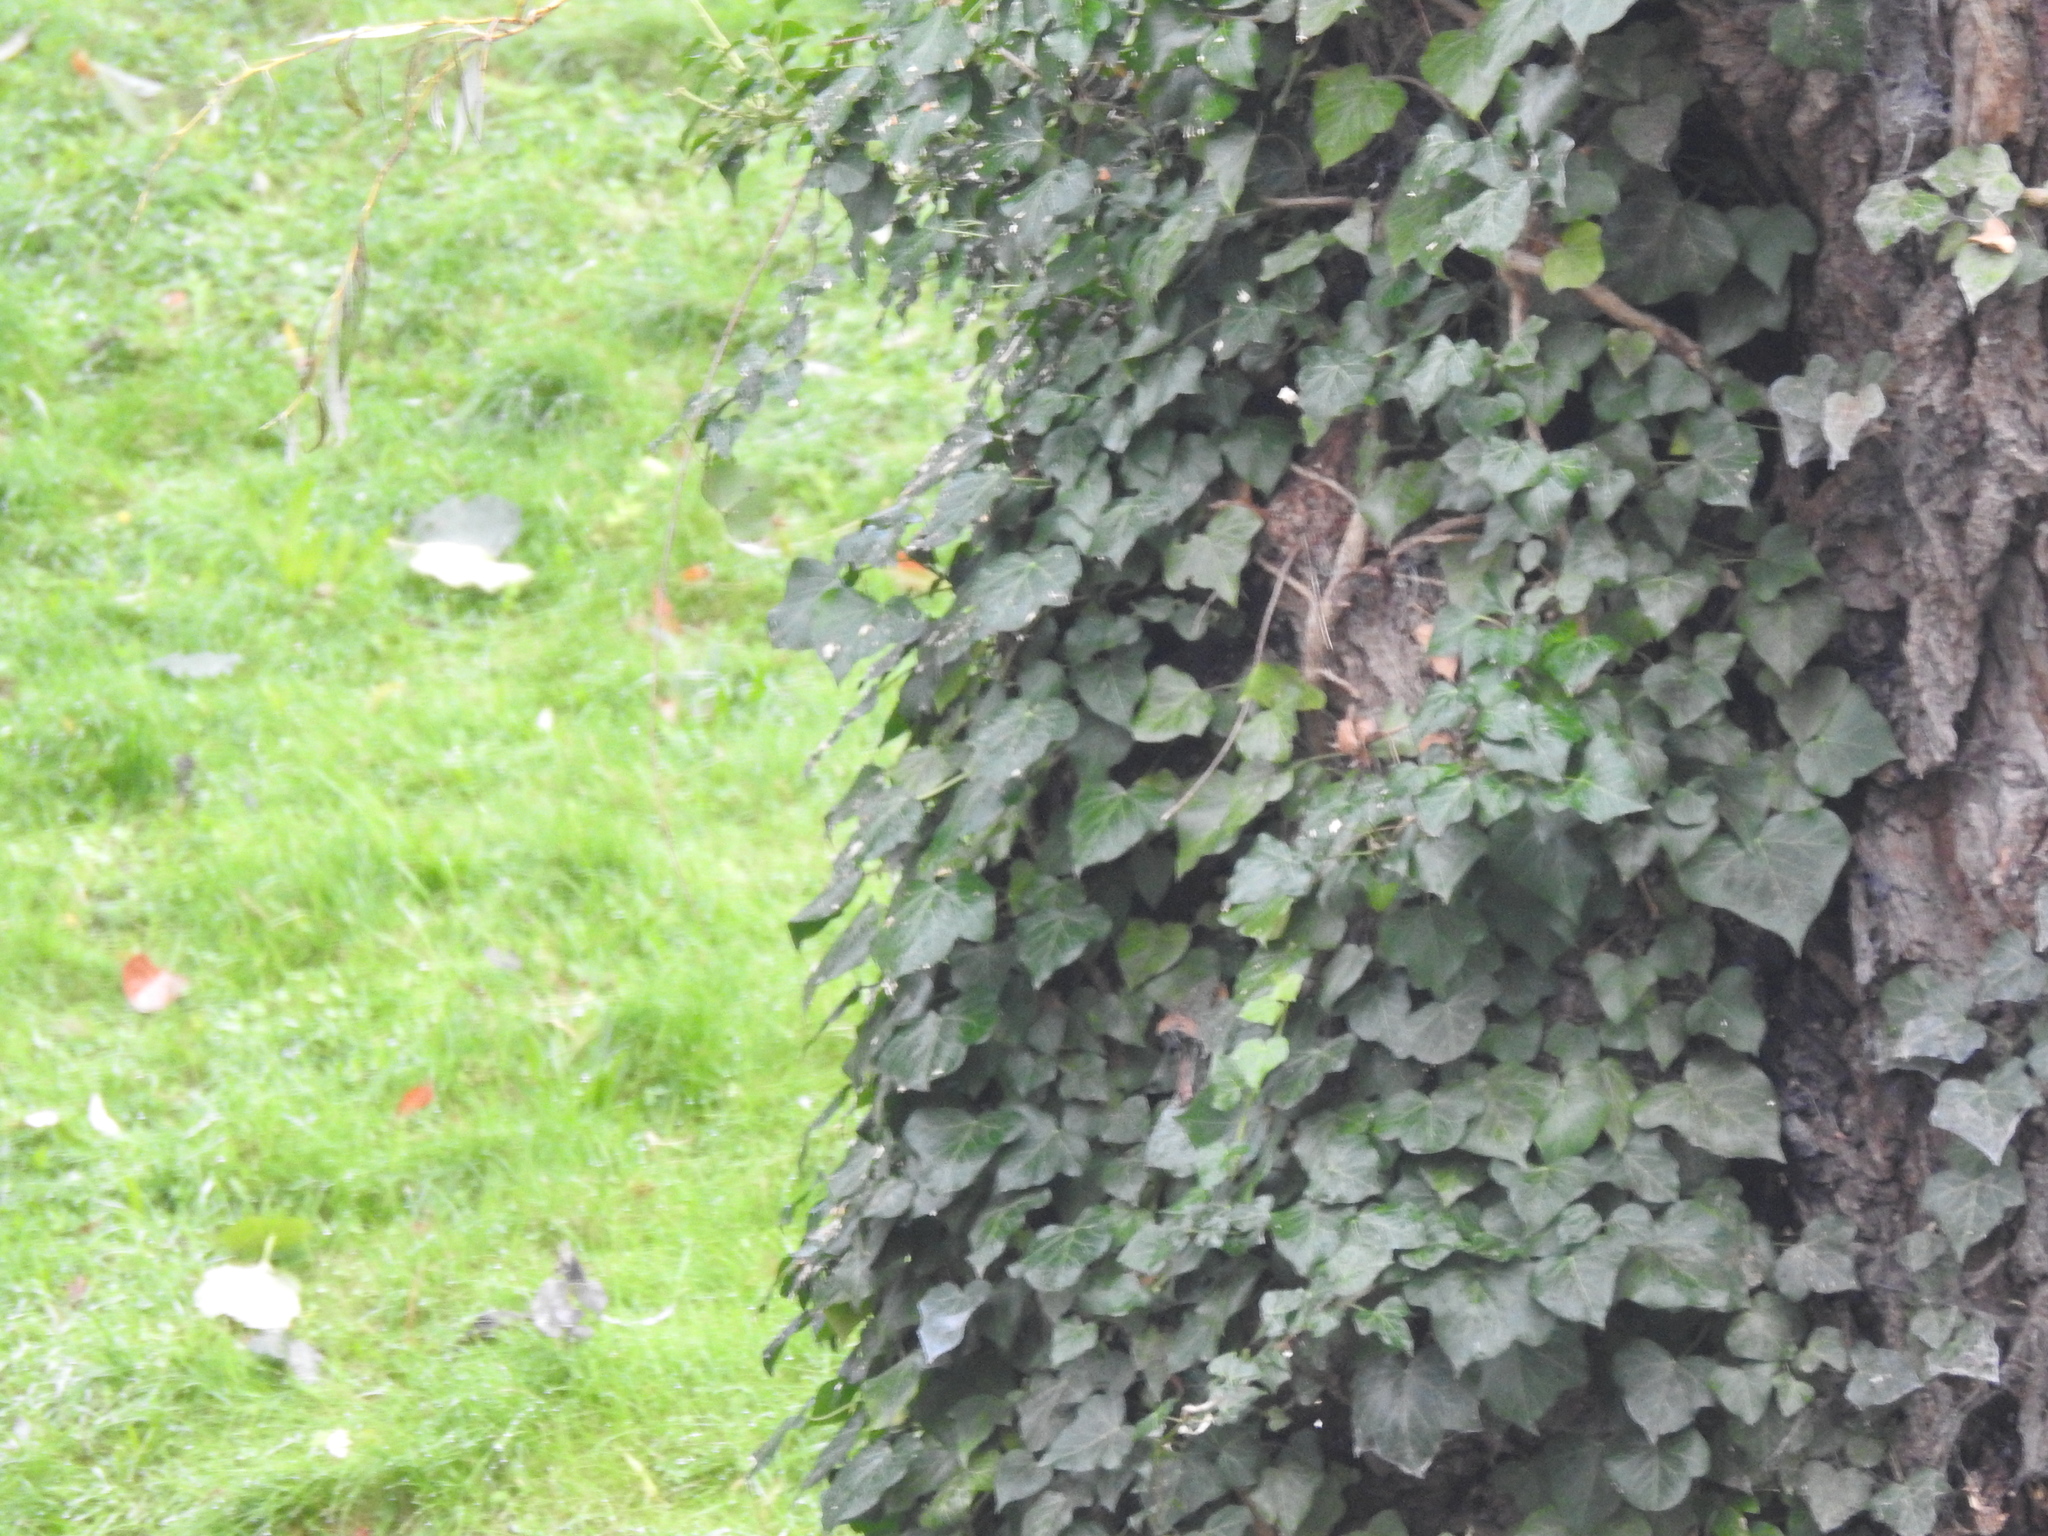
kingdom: Plantae
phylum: Tracheophyta
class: Magnoliopsida
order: Apiales
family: Araliaceae
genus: Hedera
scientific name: Hedera helix
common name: Ivy
